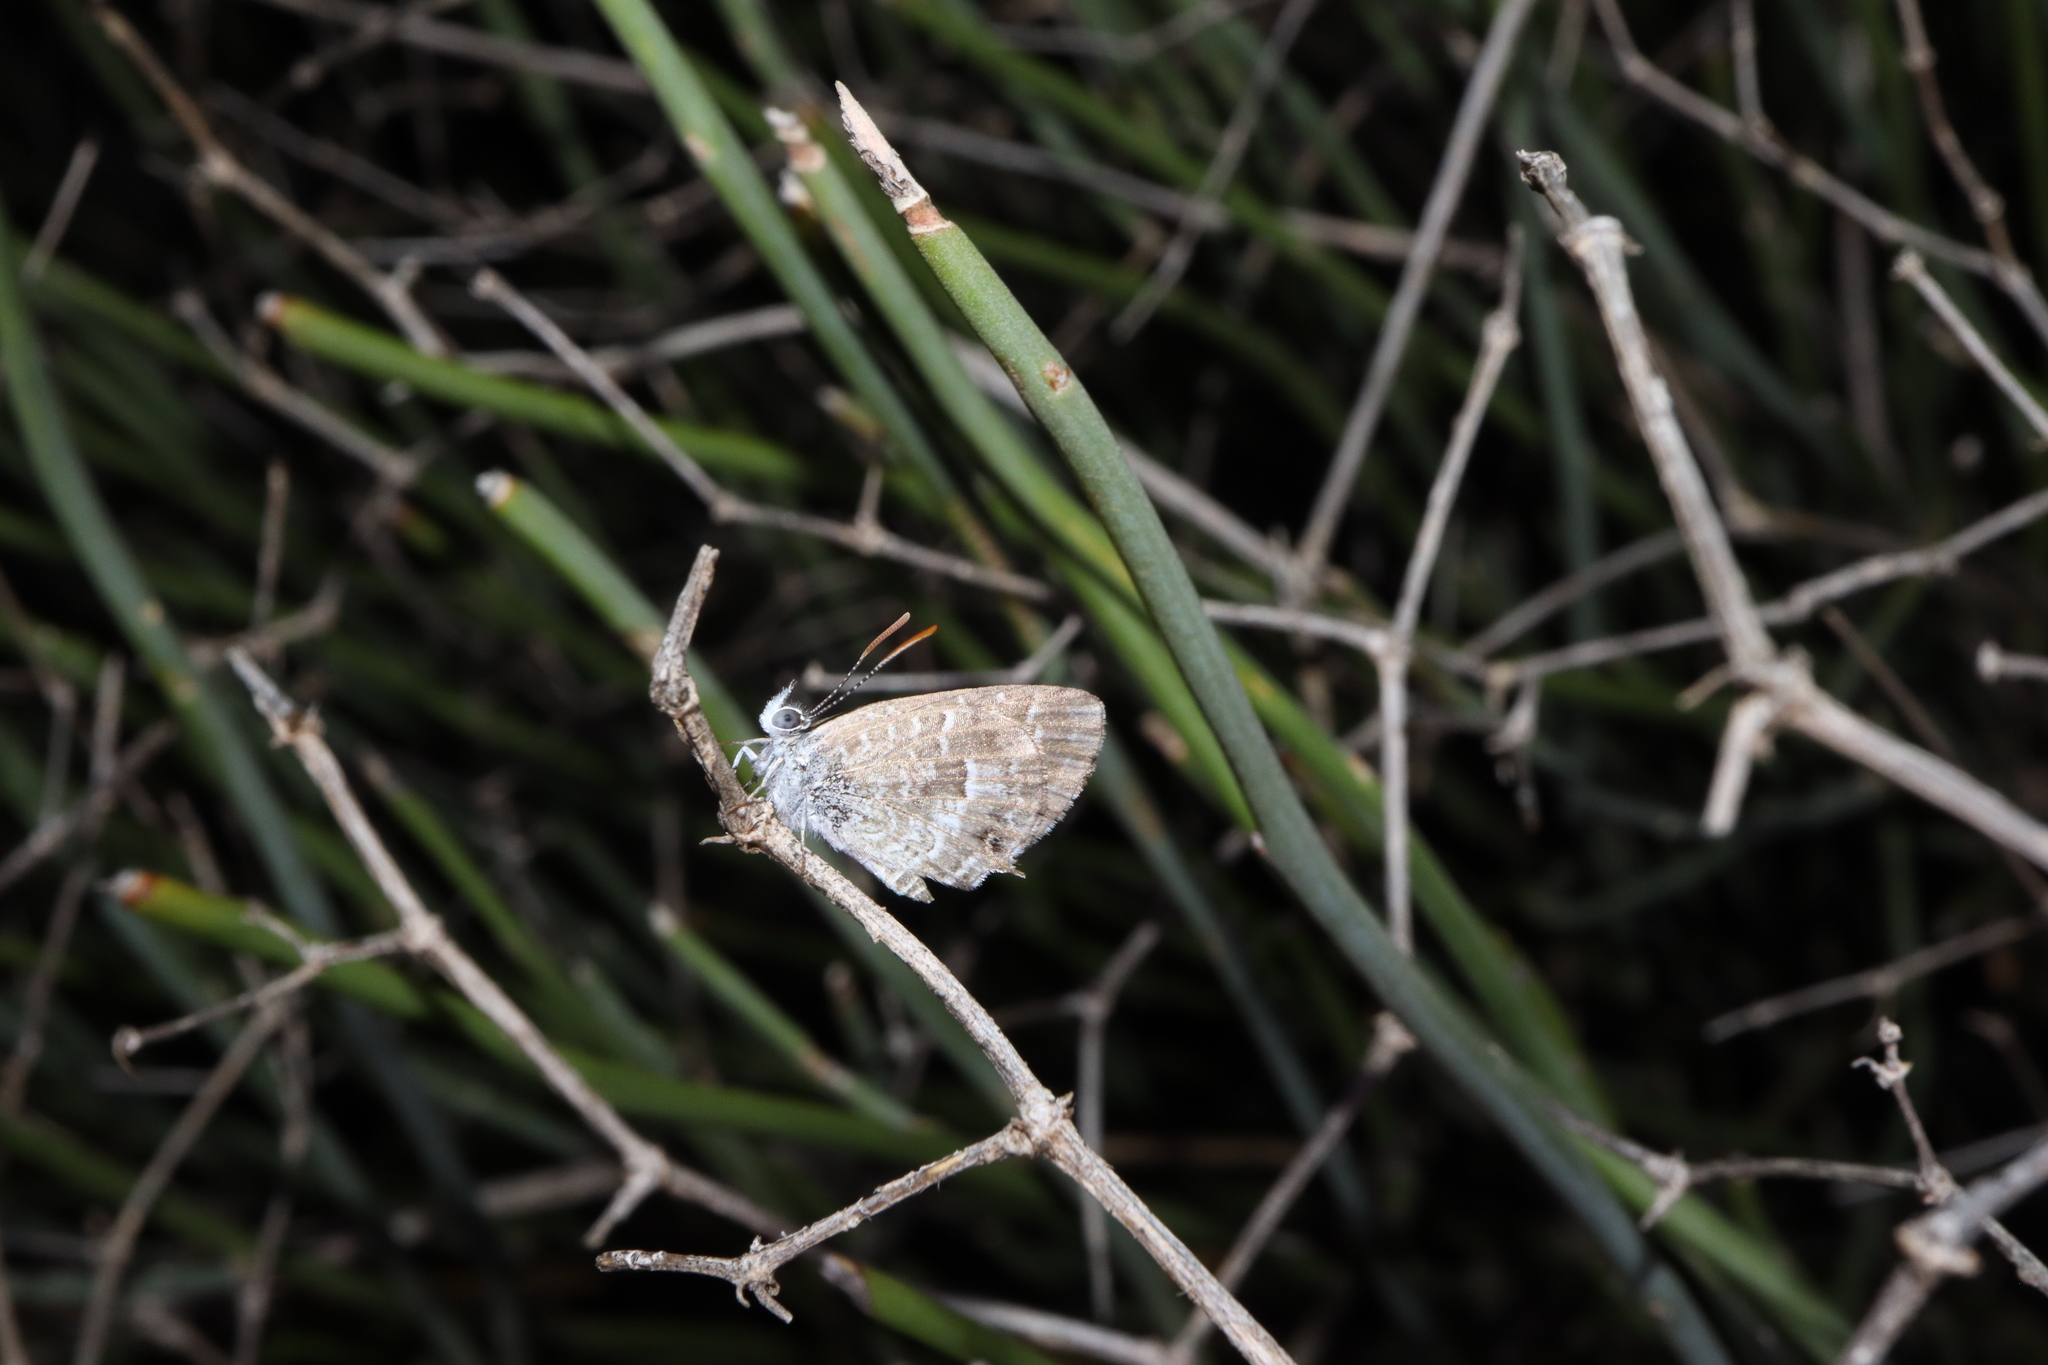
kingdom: Animalia
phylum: Arthropoda
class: Insecta
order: Lepidoptera
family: Lycaenidae
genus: Theclinesthes
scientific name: Theclinesthes serpentata
